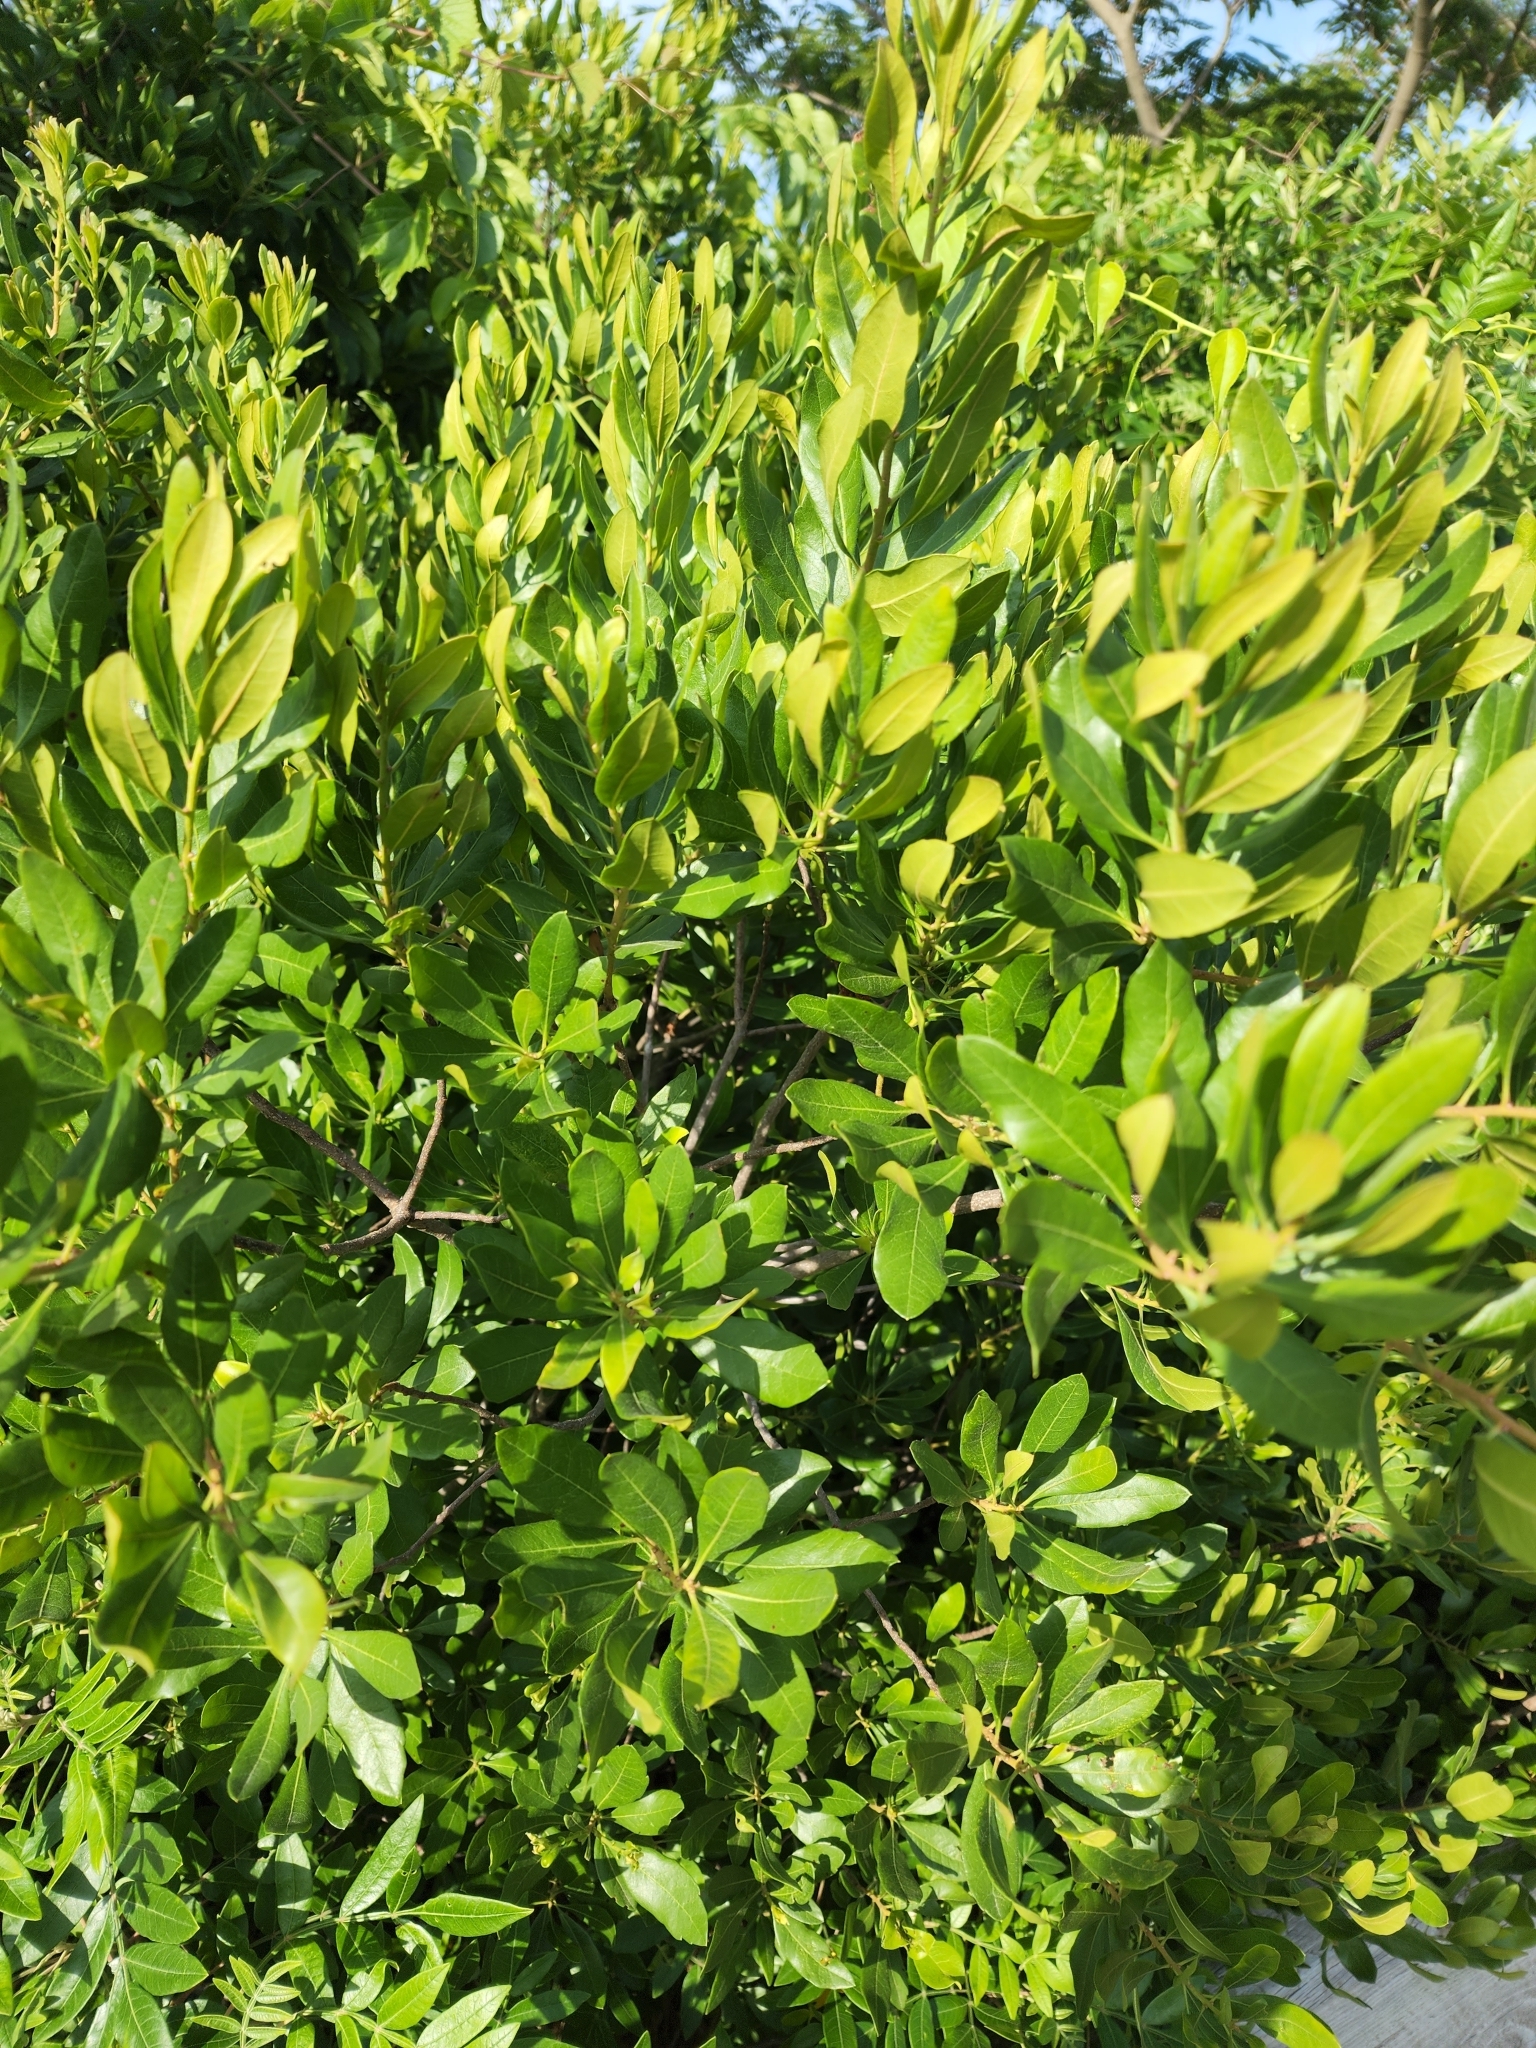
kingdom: Plantae
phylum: Tracheophyta
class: Magnoliopsida
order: Fagales
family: Myricaceae
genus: Morella
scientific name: Morella pensylvanica
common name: Northern bayberry
